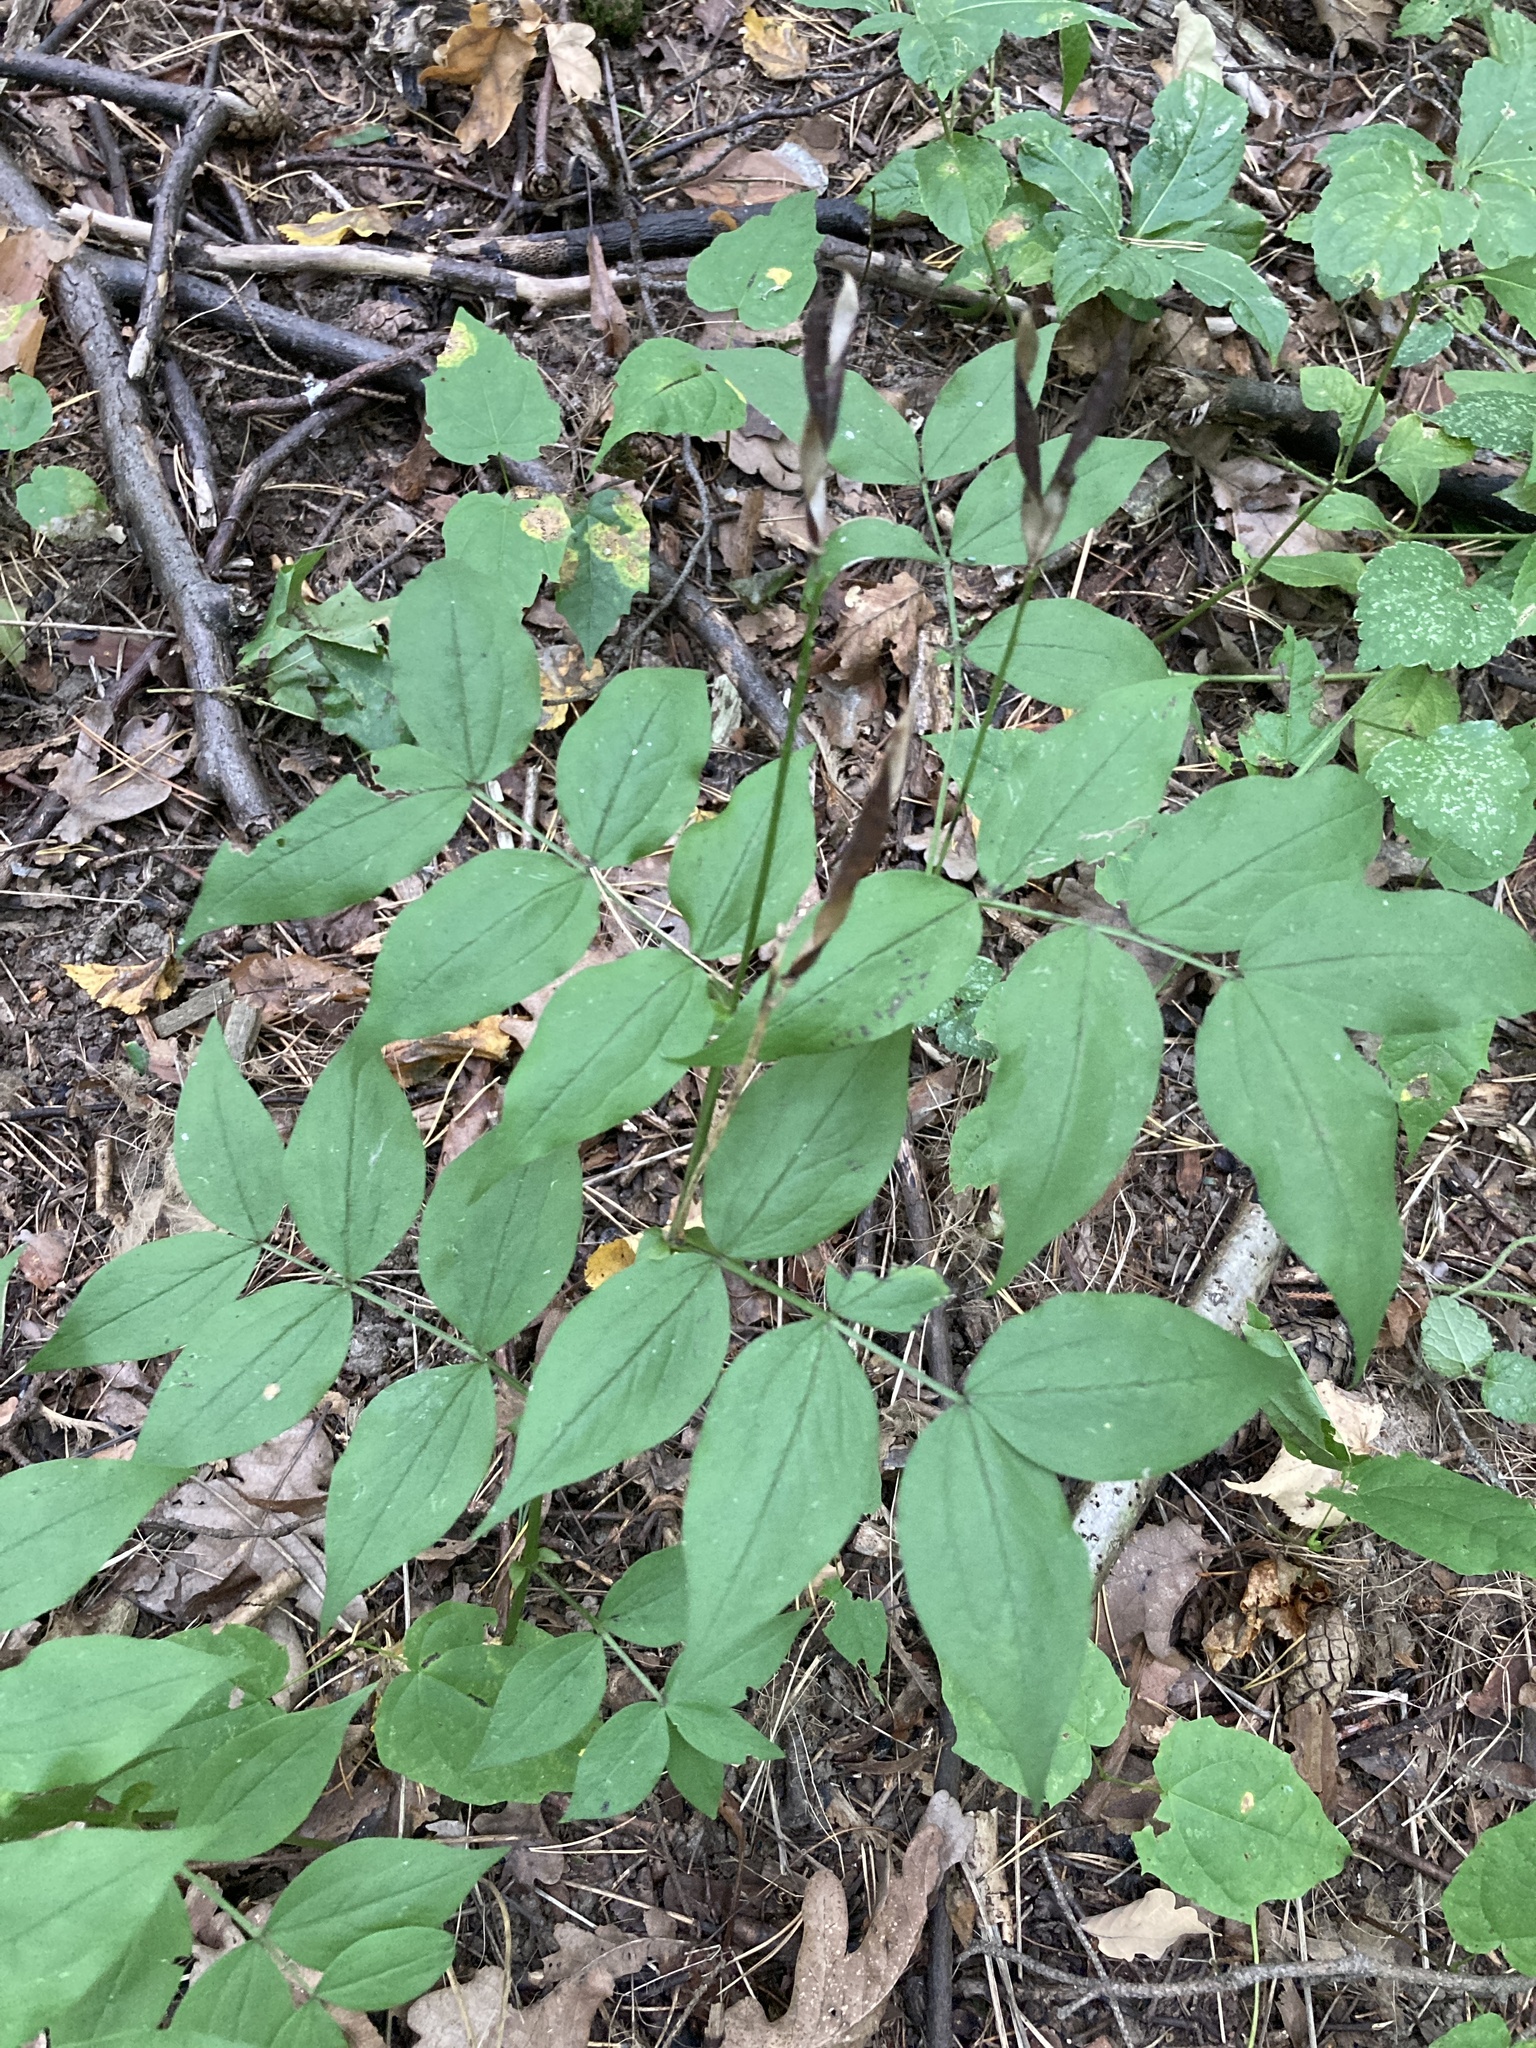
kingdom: Plantae
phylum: Tracheophyta
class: Magnoliopsida
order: Fabales
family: Fabaceae
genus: Lathyrus
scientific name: Lathyrus vernus
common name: Spring pea
